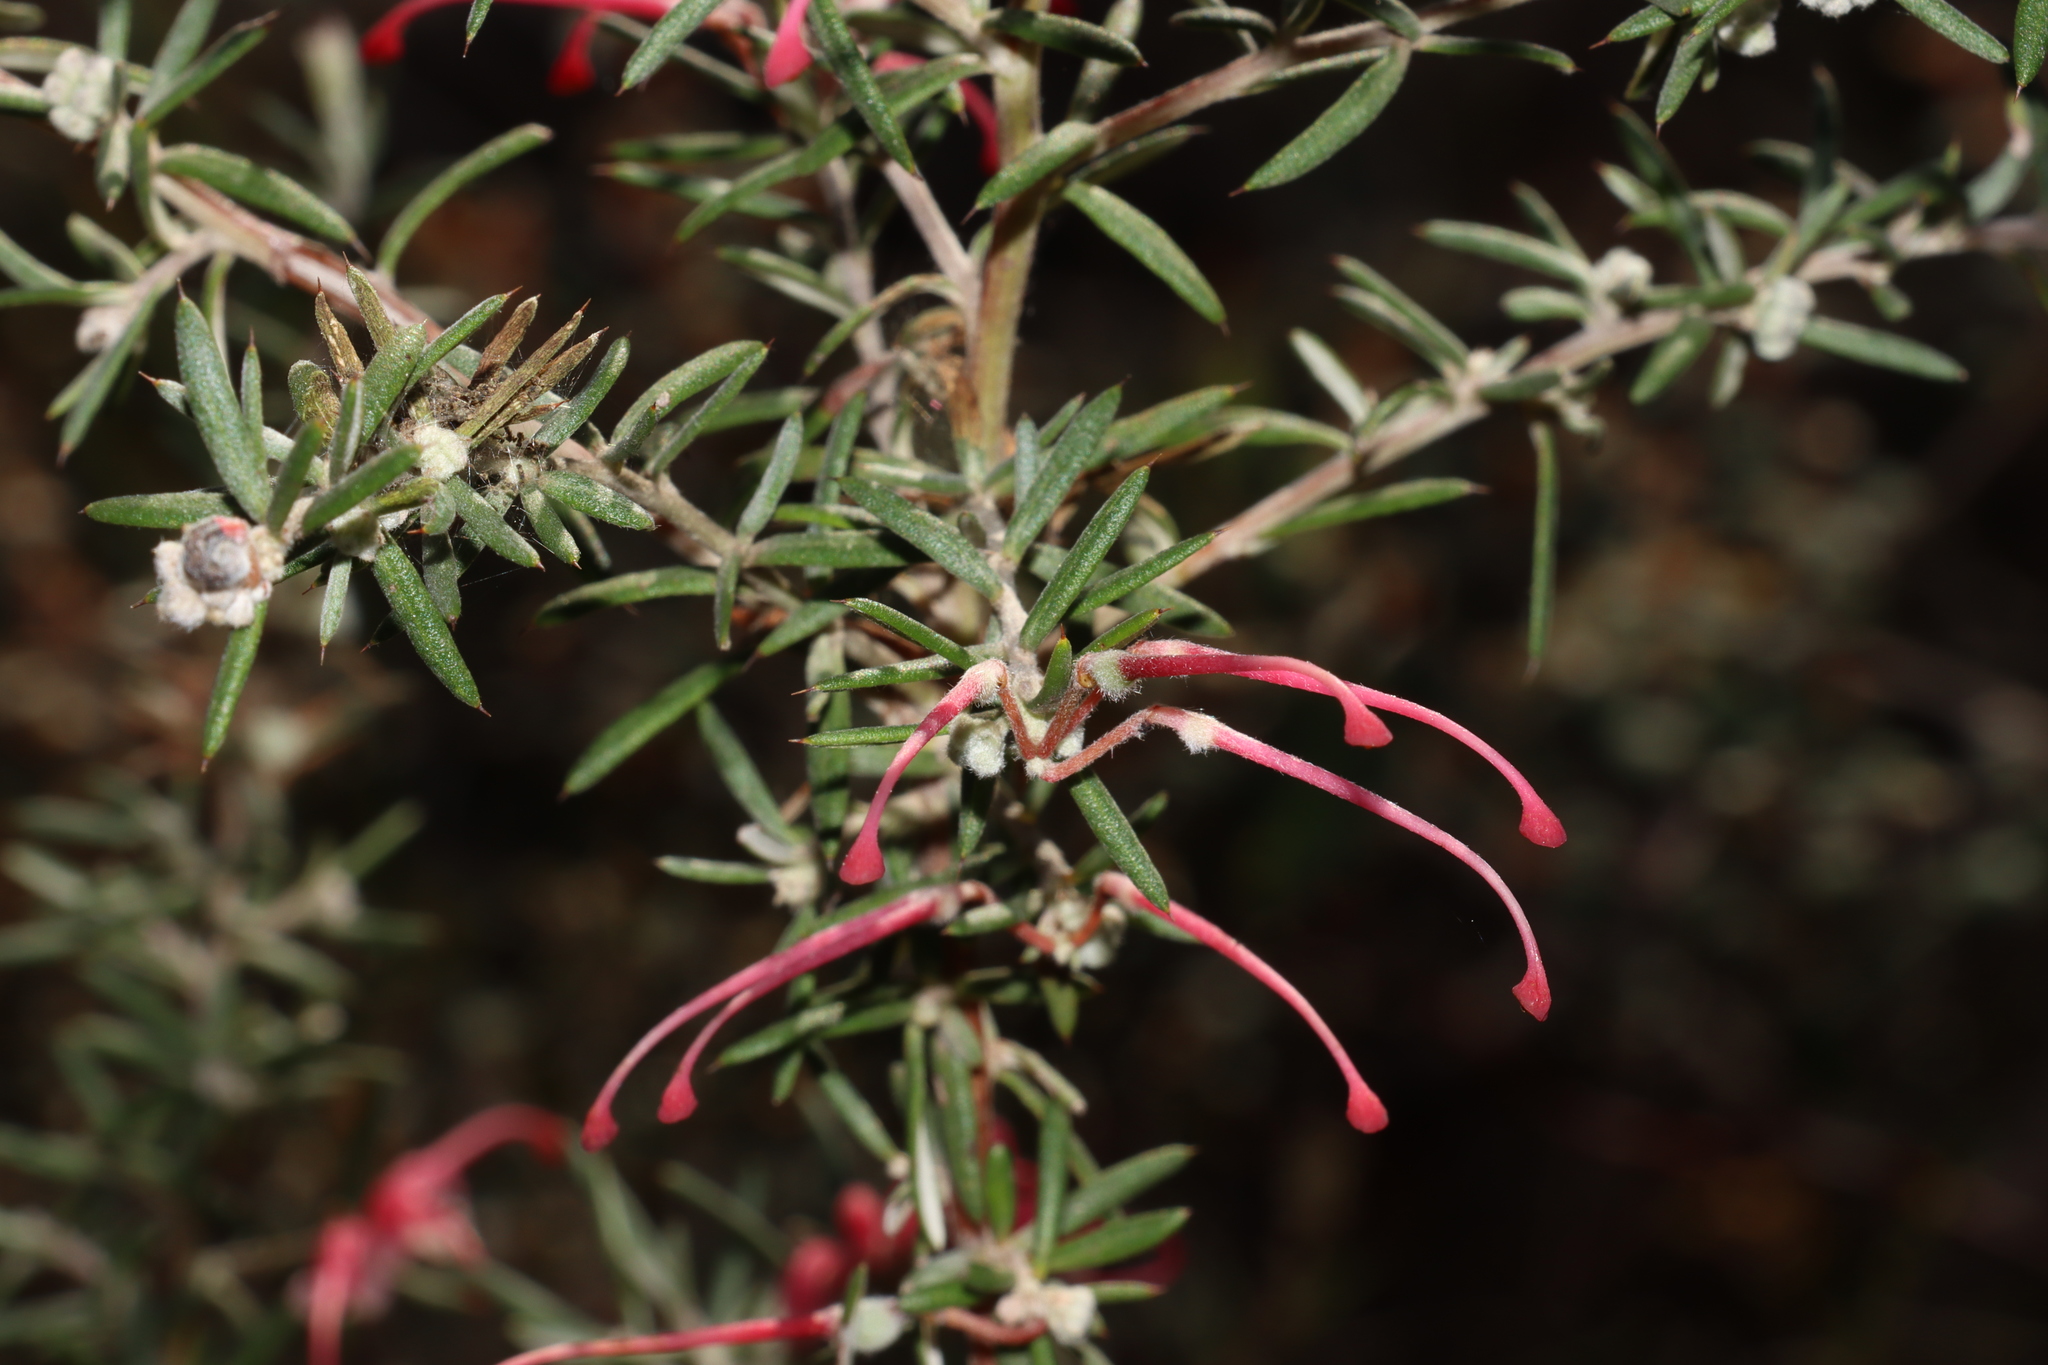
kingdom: Plantae
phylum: Tracheophyta
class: Magnoliopsida
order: Proteales
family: Proteaceae
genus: Grevillea
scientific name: Grevillea lavandulacea
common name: Lavender grevillea
